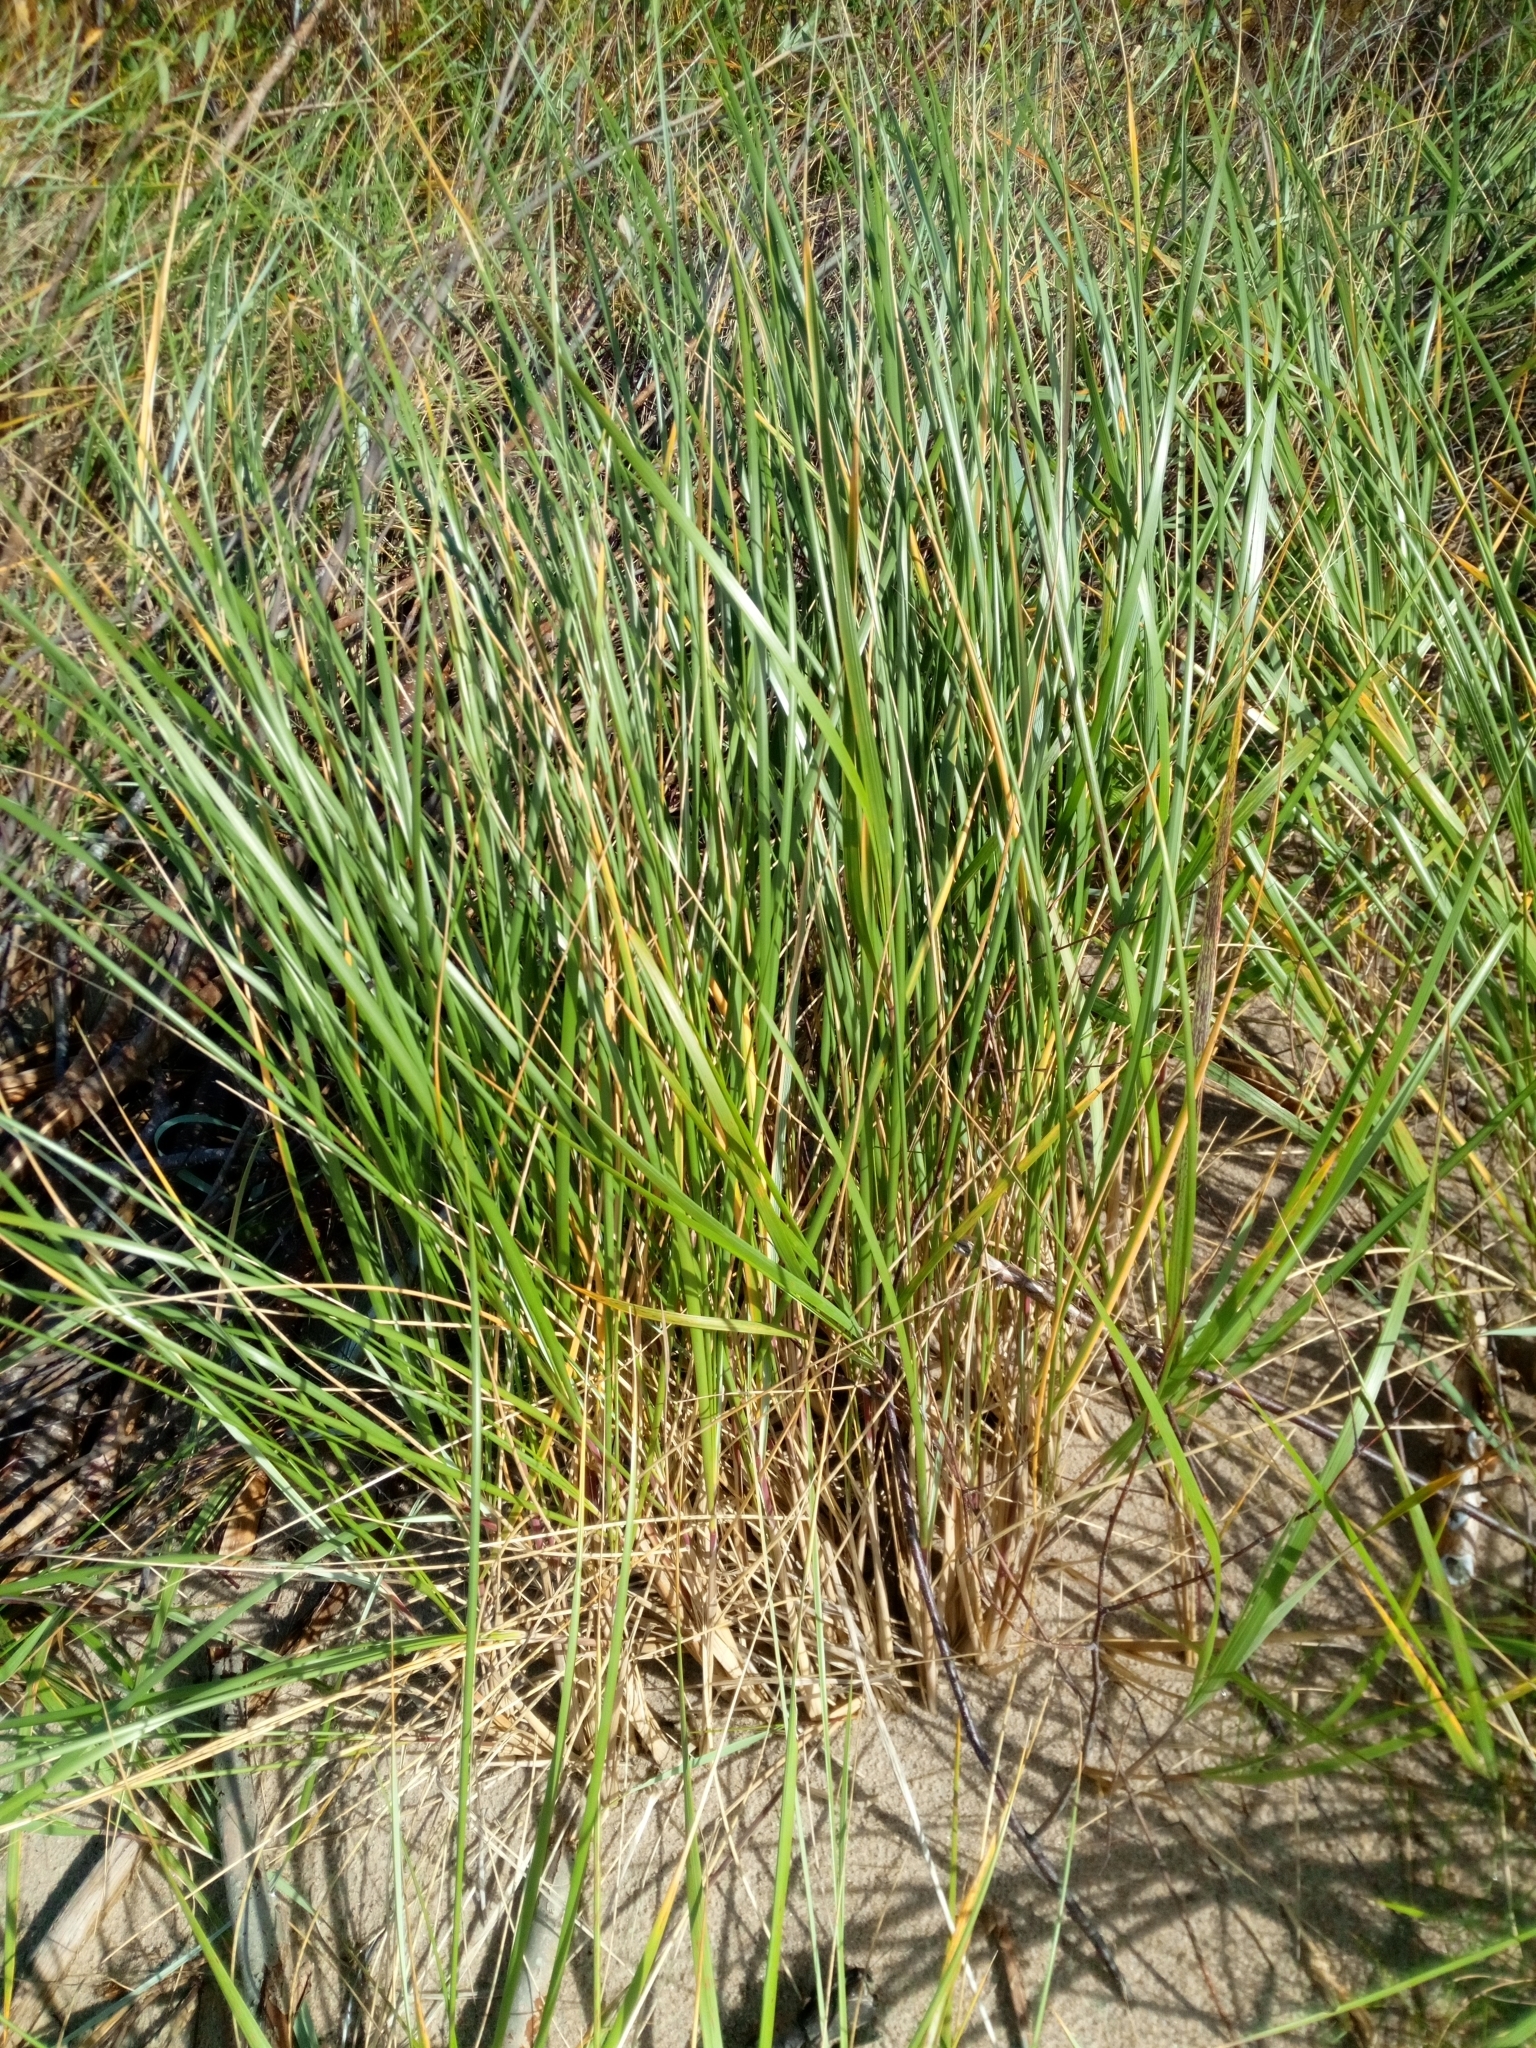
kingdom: Plantae
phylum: Tracheophyta
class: Liliopsida
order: Poales
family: Poaceae
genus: Calamagrostis
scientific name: Calamagrostis arenaria
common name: European beachgrass
